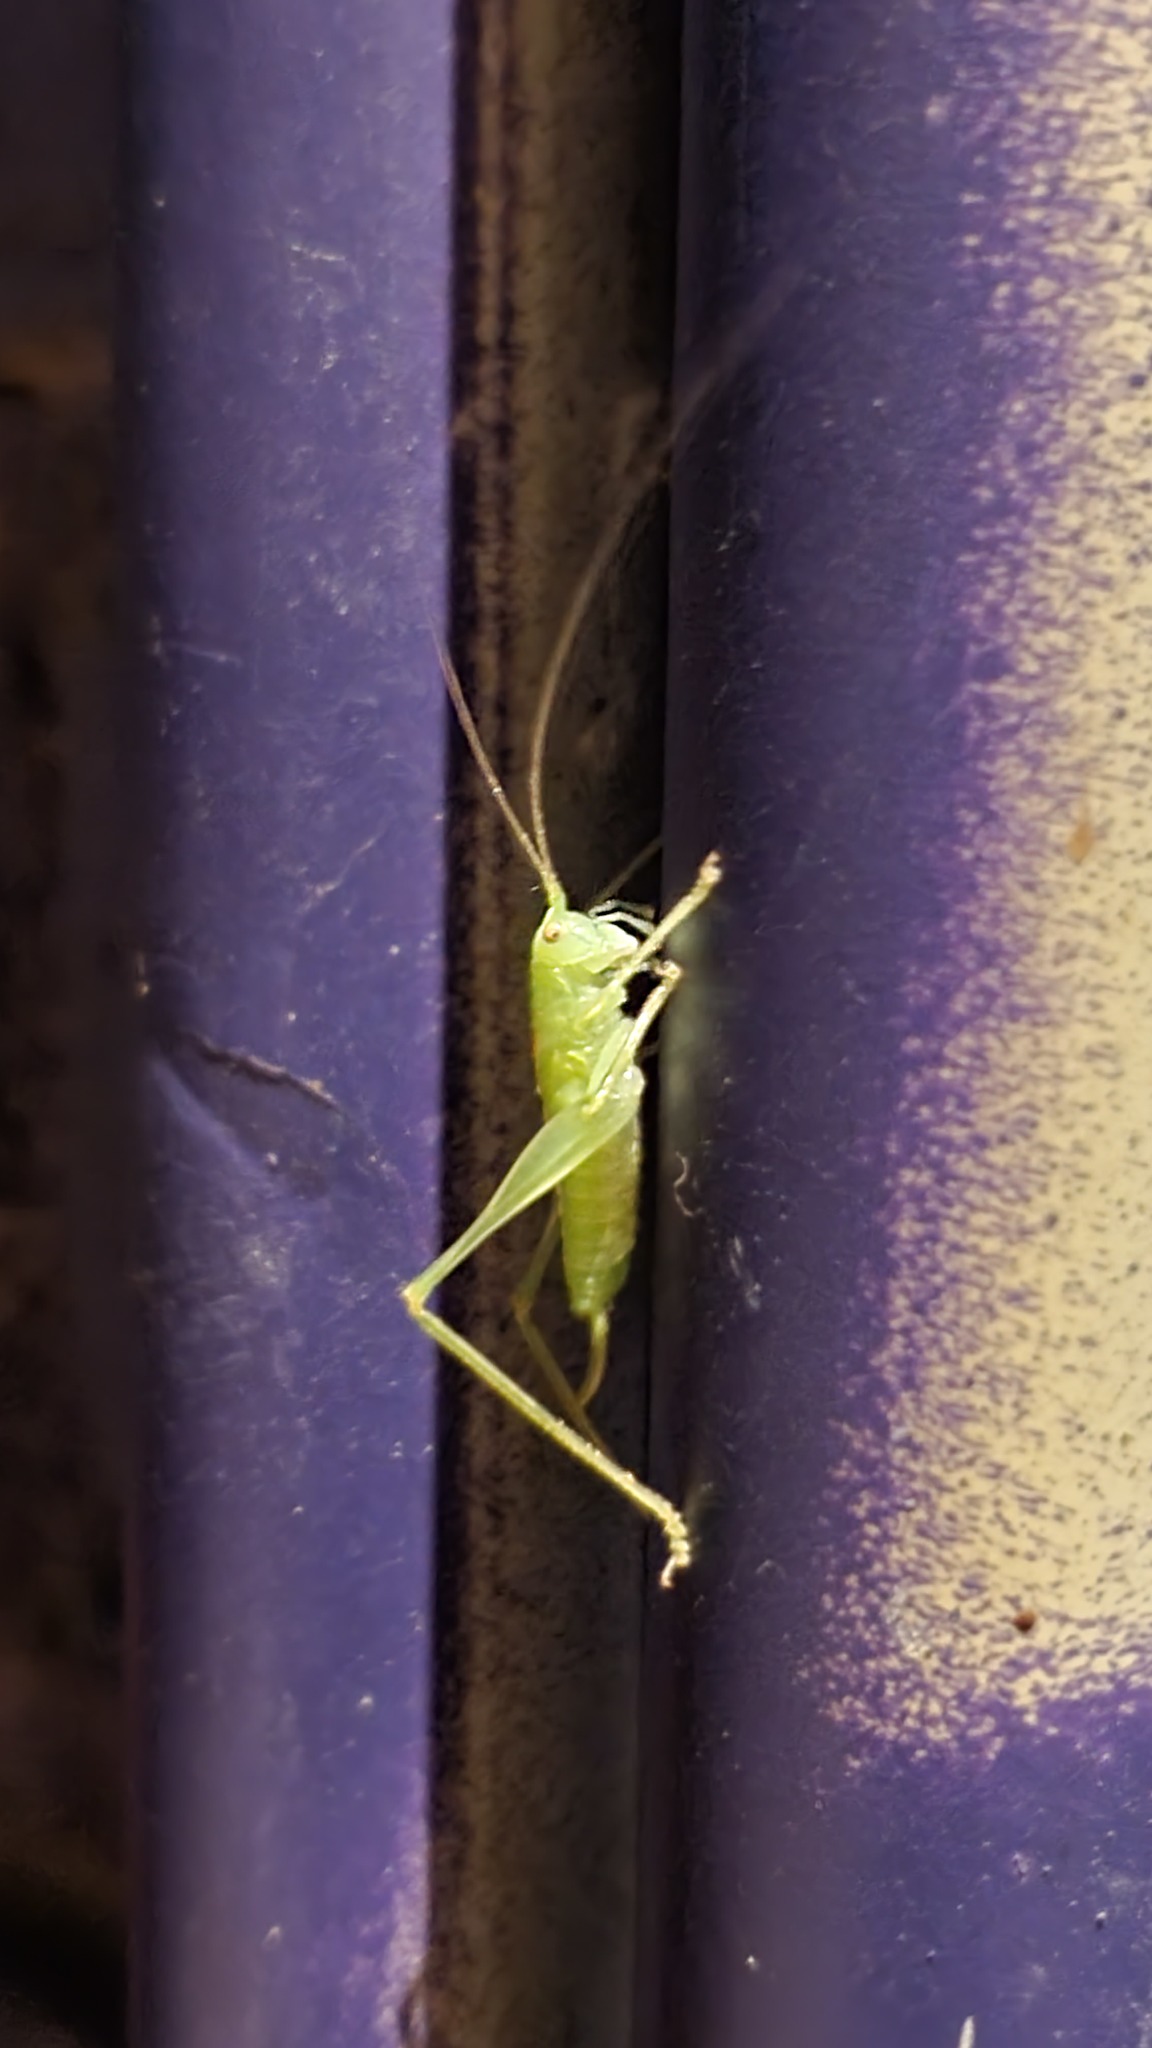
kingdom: Animalia
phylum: Arthropoda
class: Insecta
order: Orthoptera
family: Tettigoniidae
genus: Meconema
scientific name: Meconema meridionale
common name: Southern oak bush-cricket
